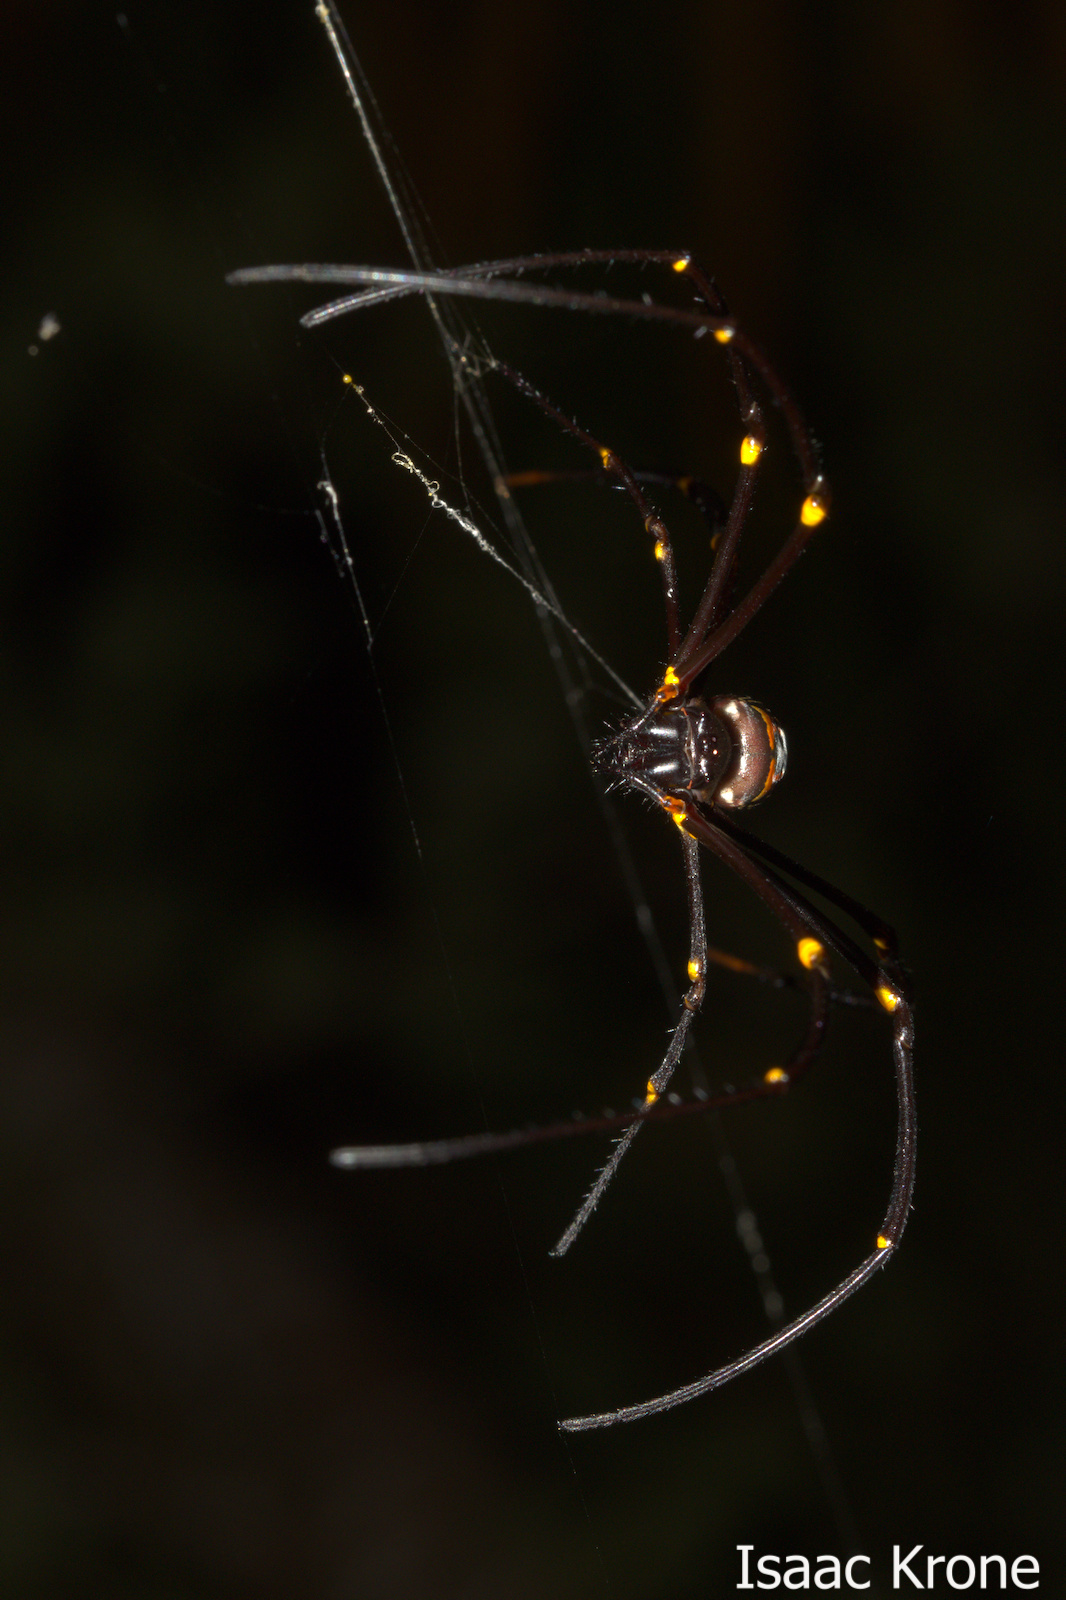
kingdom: Animalia
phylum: Arthropoda
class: Arachnida
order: Araneae
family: Araneidae
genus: Nephila
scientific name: Nephila pilipes
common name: Giant golden orb weaver
